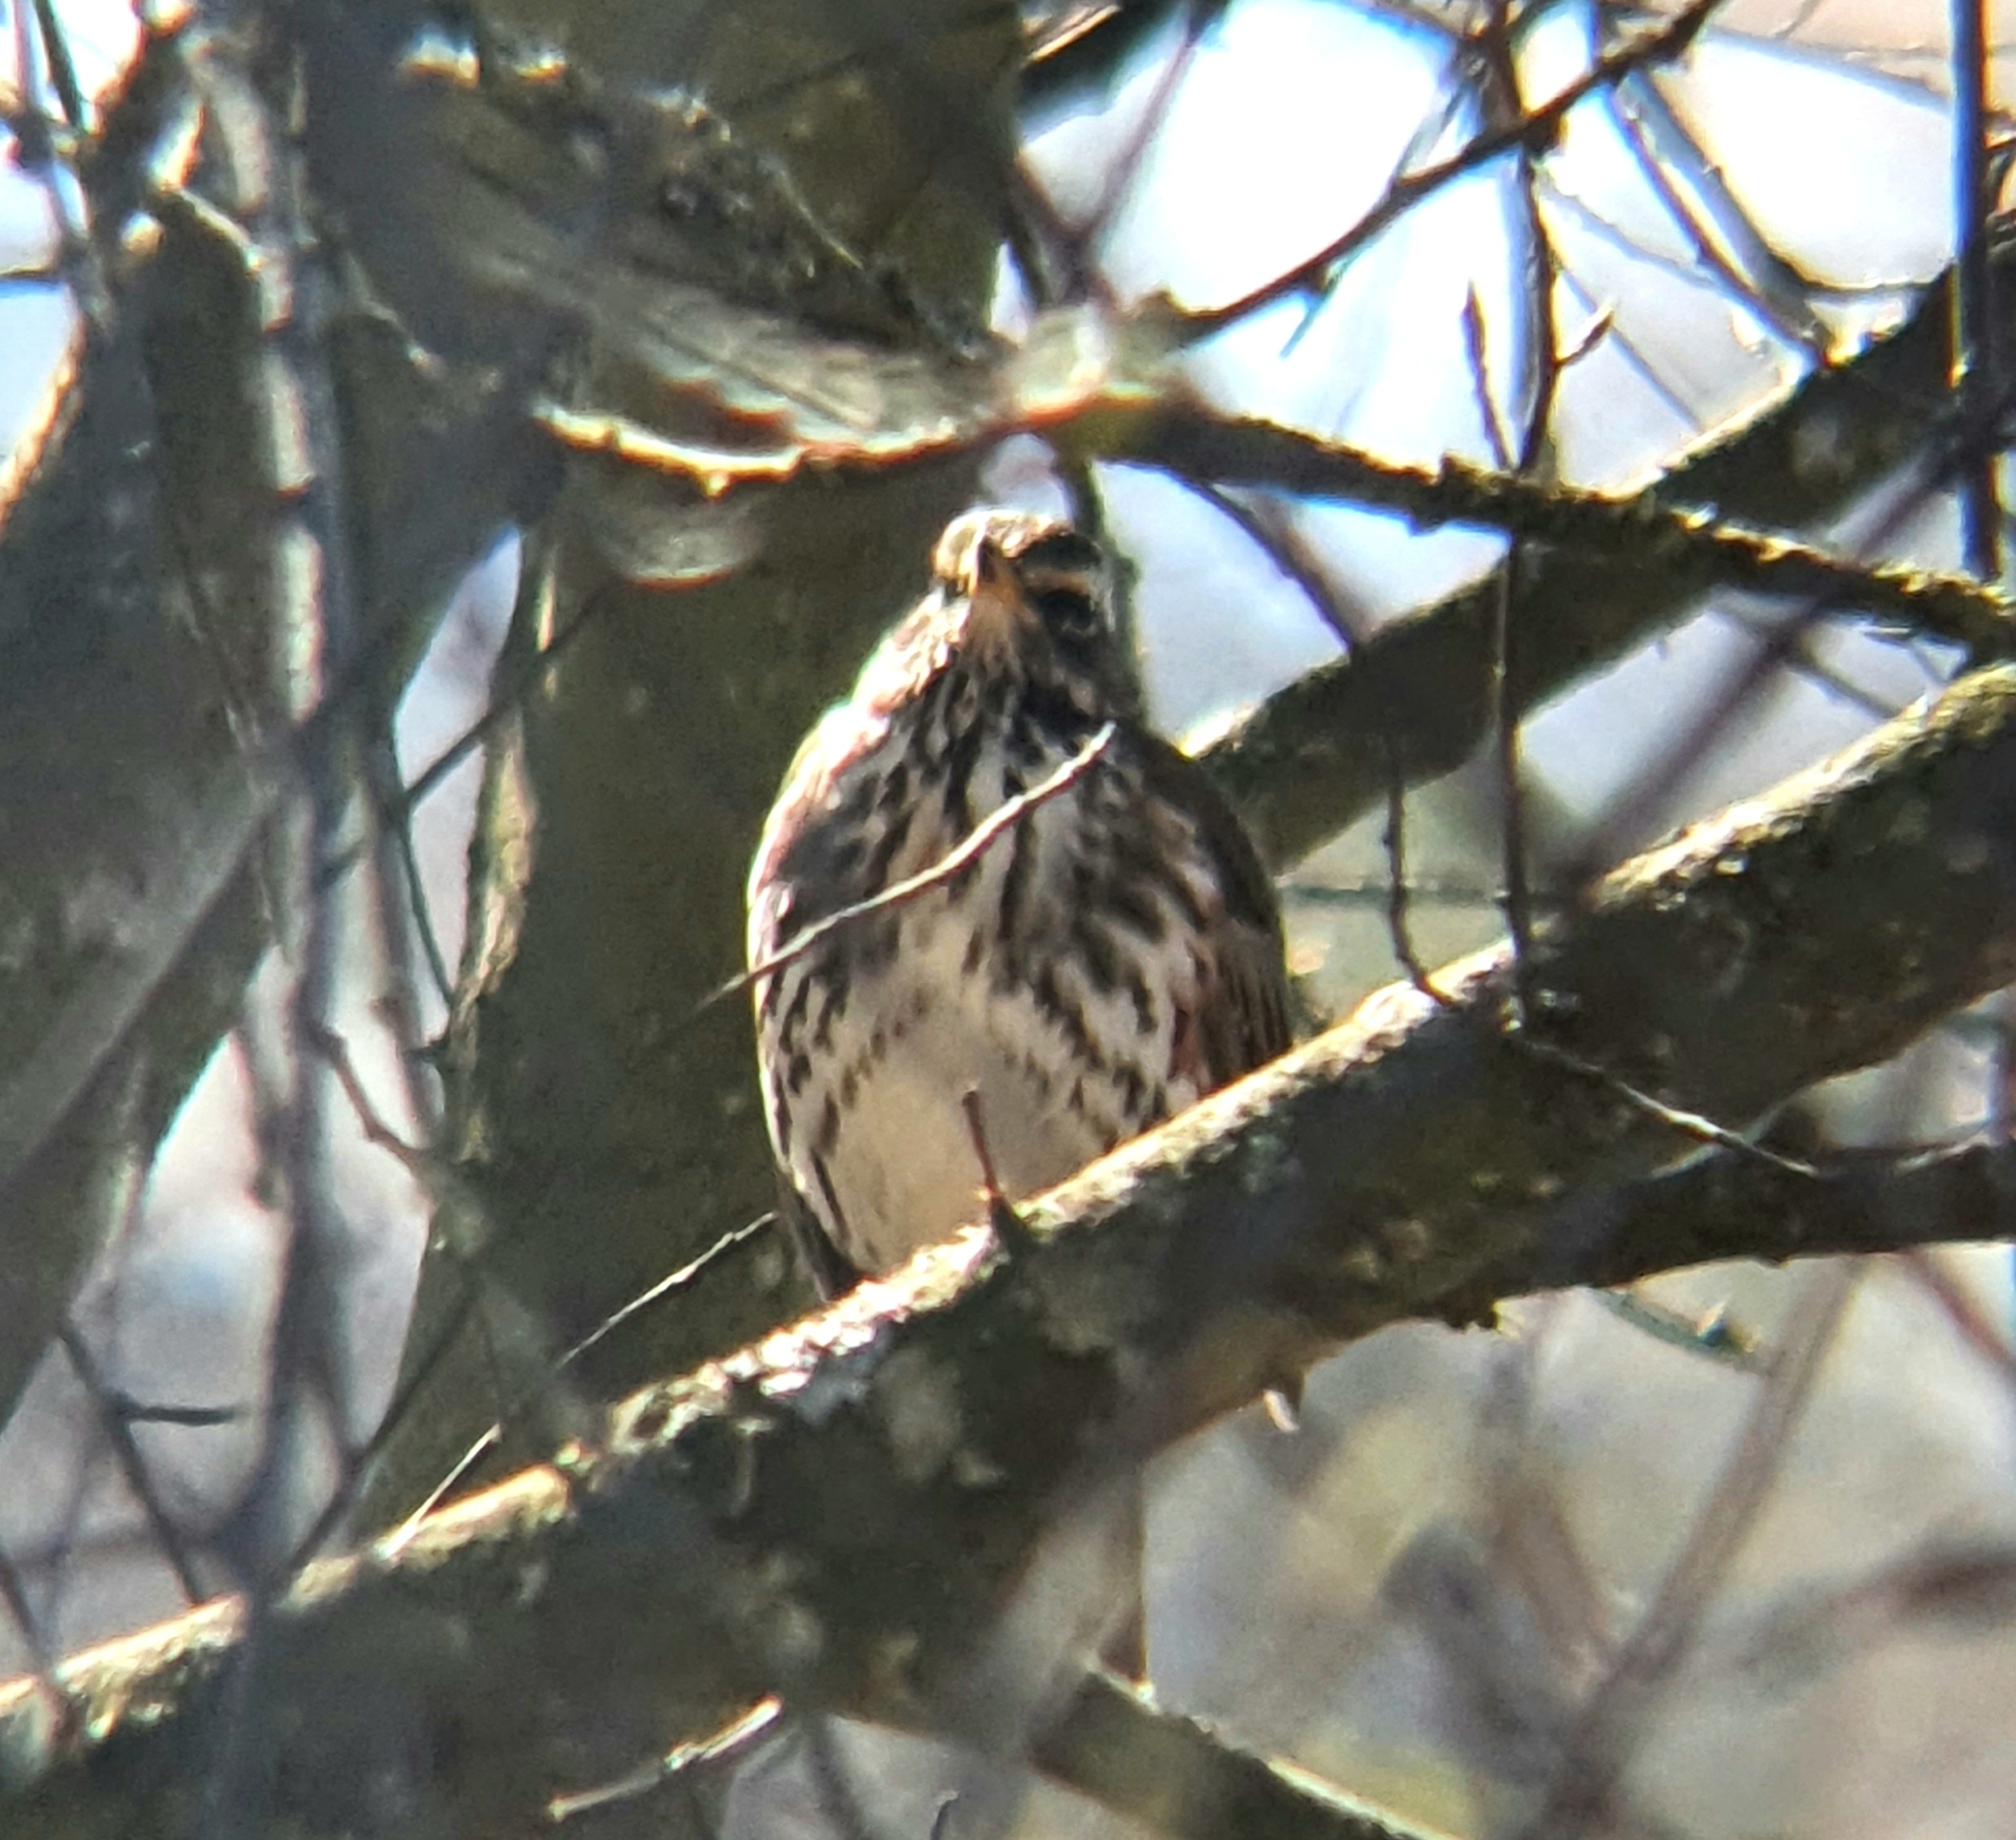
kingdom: Animalia
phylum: Chordata
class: Aves
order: Passeriformes
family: Turdidae
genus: Turdus
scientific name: Turdus iliacus
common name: Redwing
